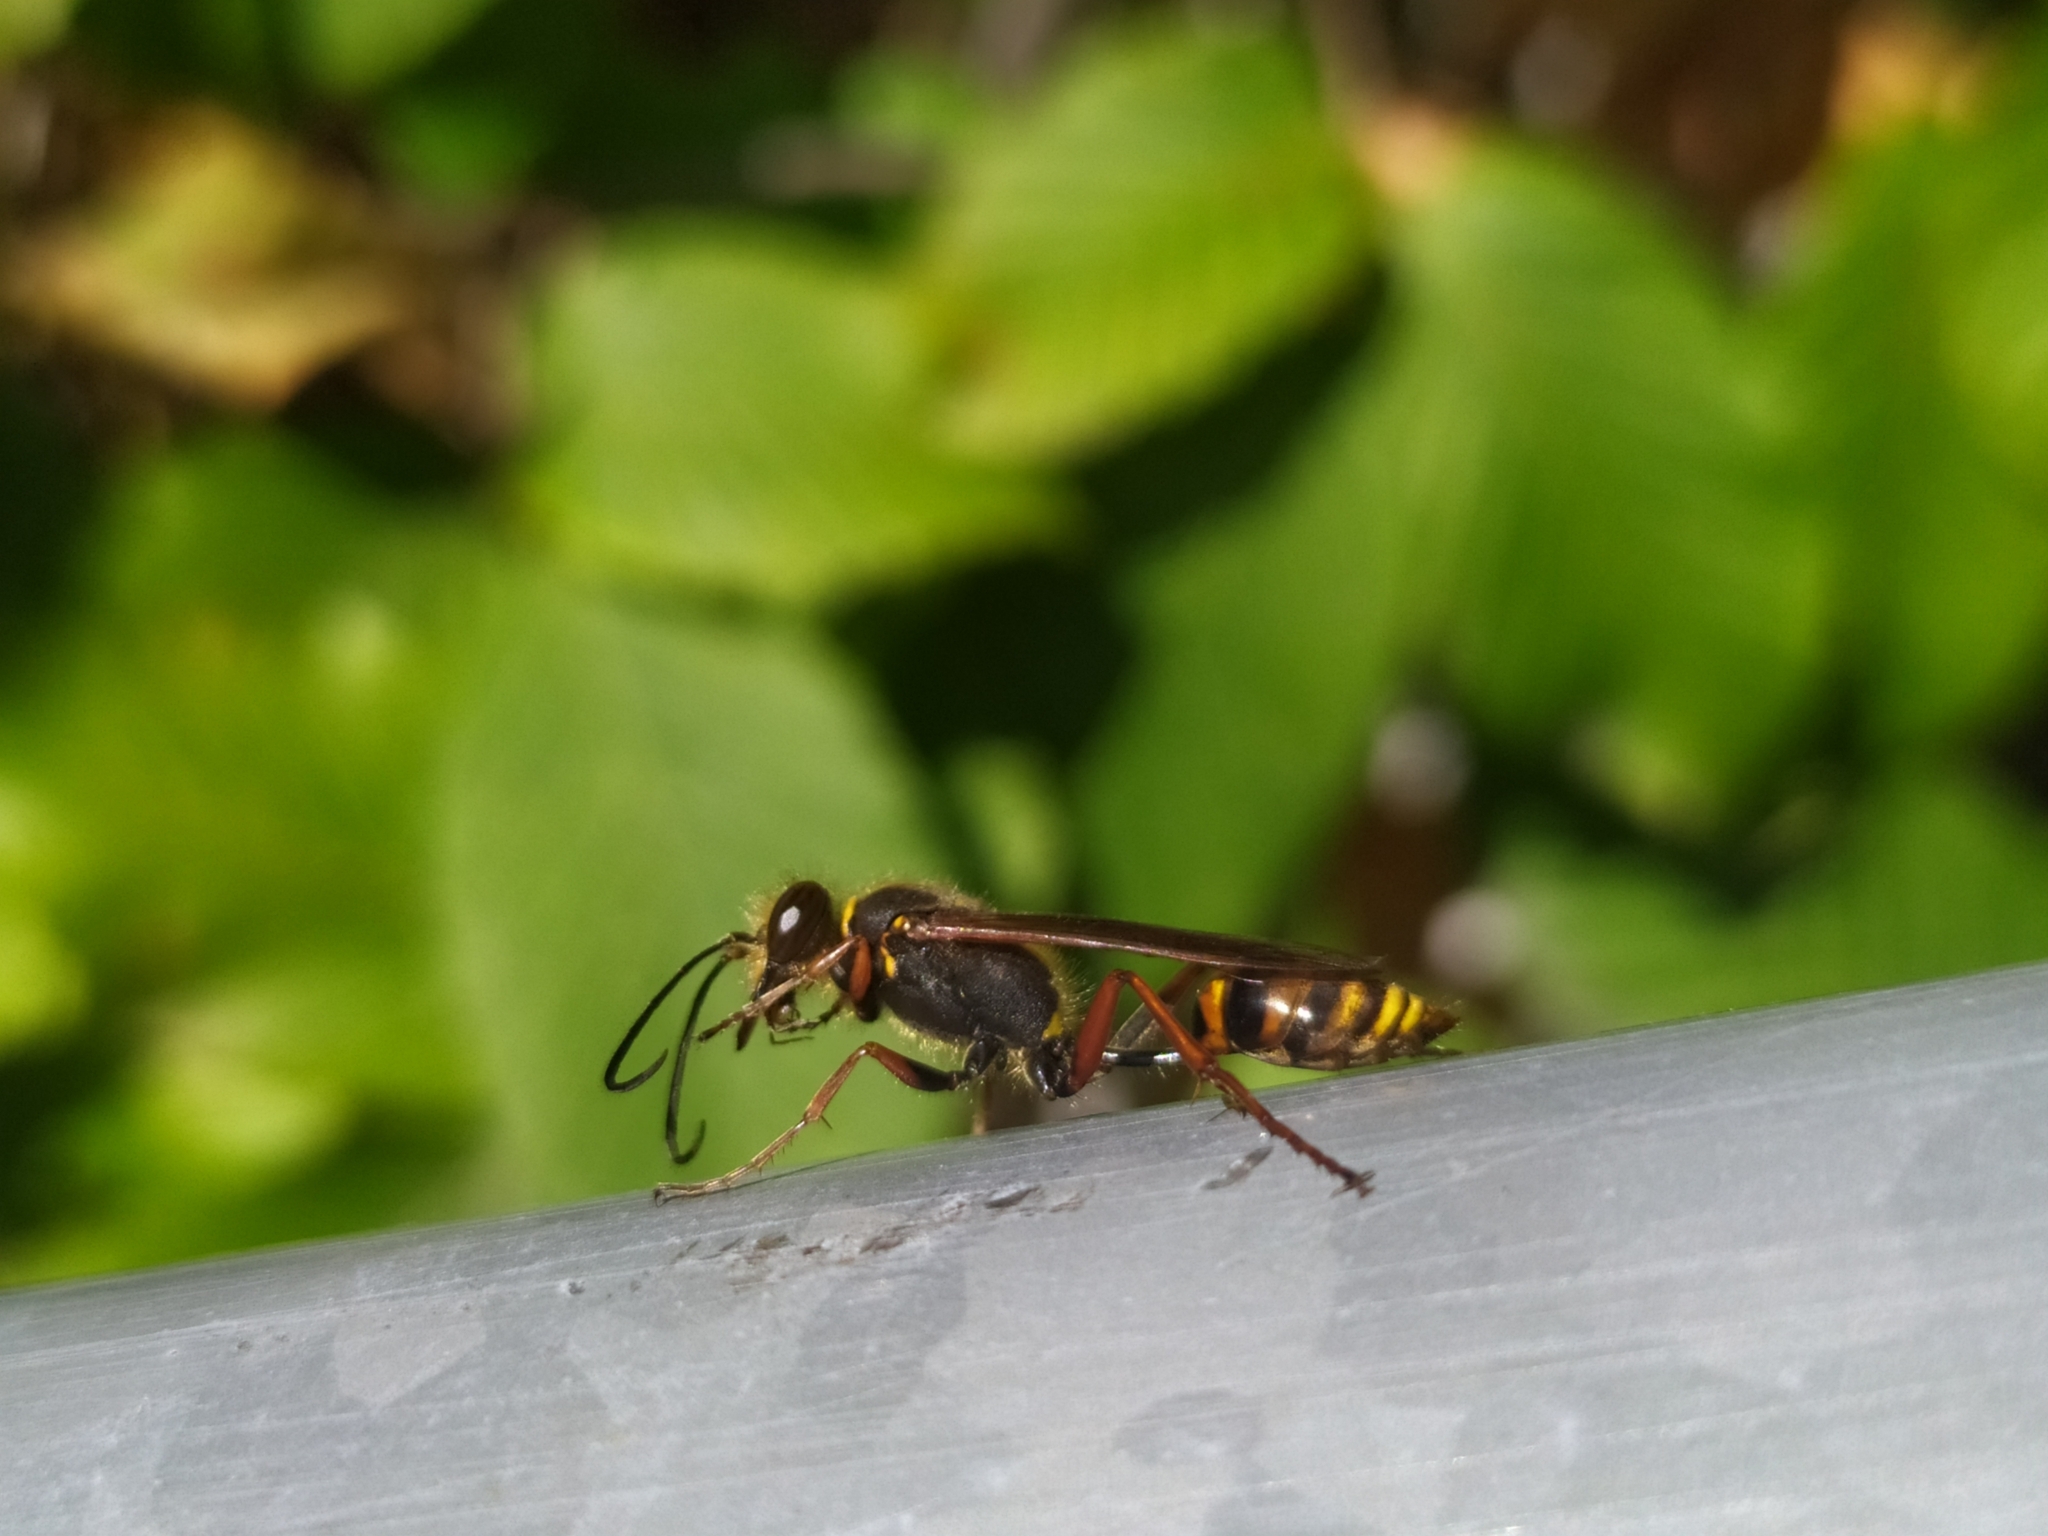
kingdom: Animalia
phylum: Arthropoda
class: Insecta
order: Hymenoptera
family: Sphecidae
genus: Sceliphron
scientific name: Sceliphron curvatum
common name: Pèlopèe
